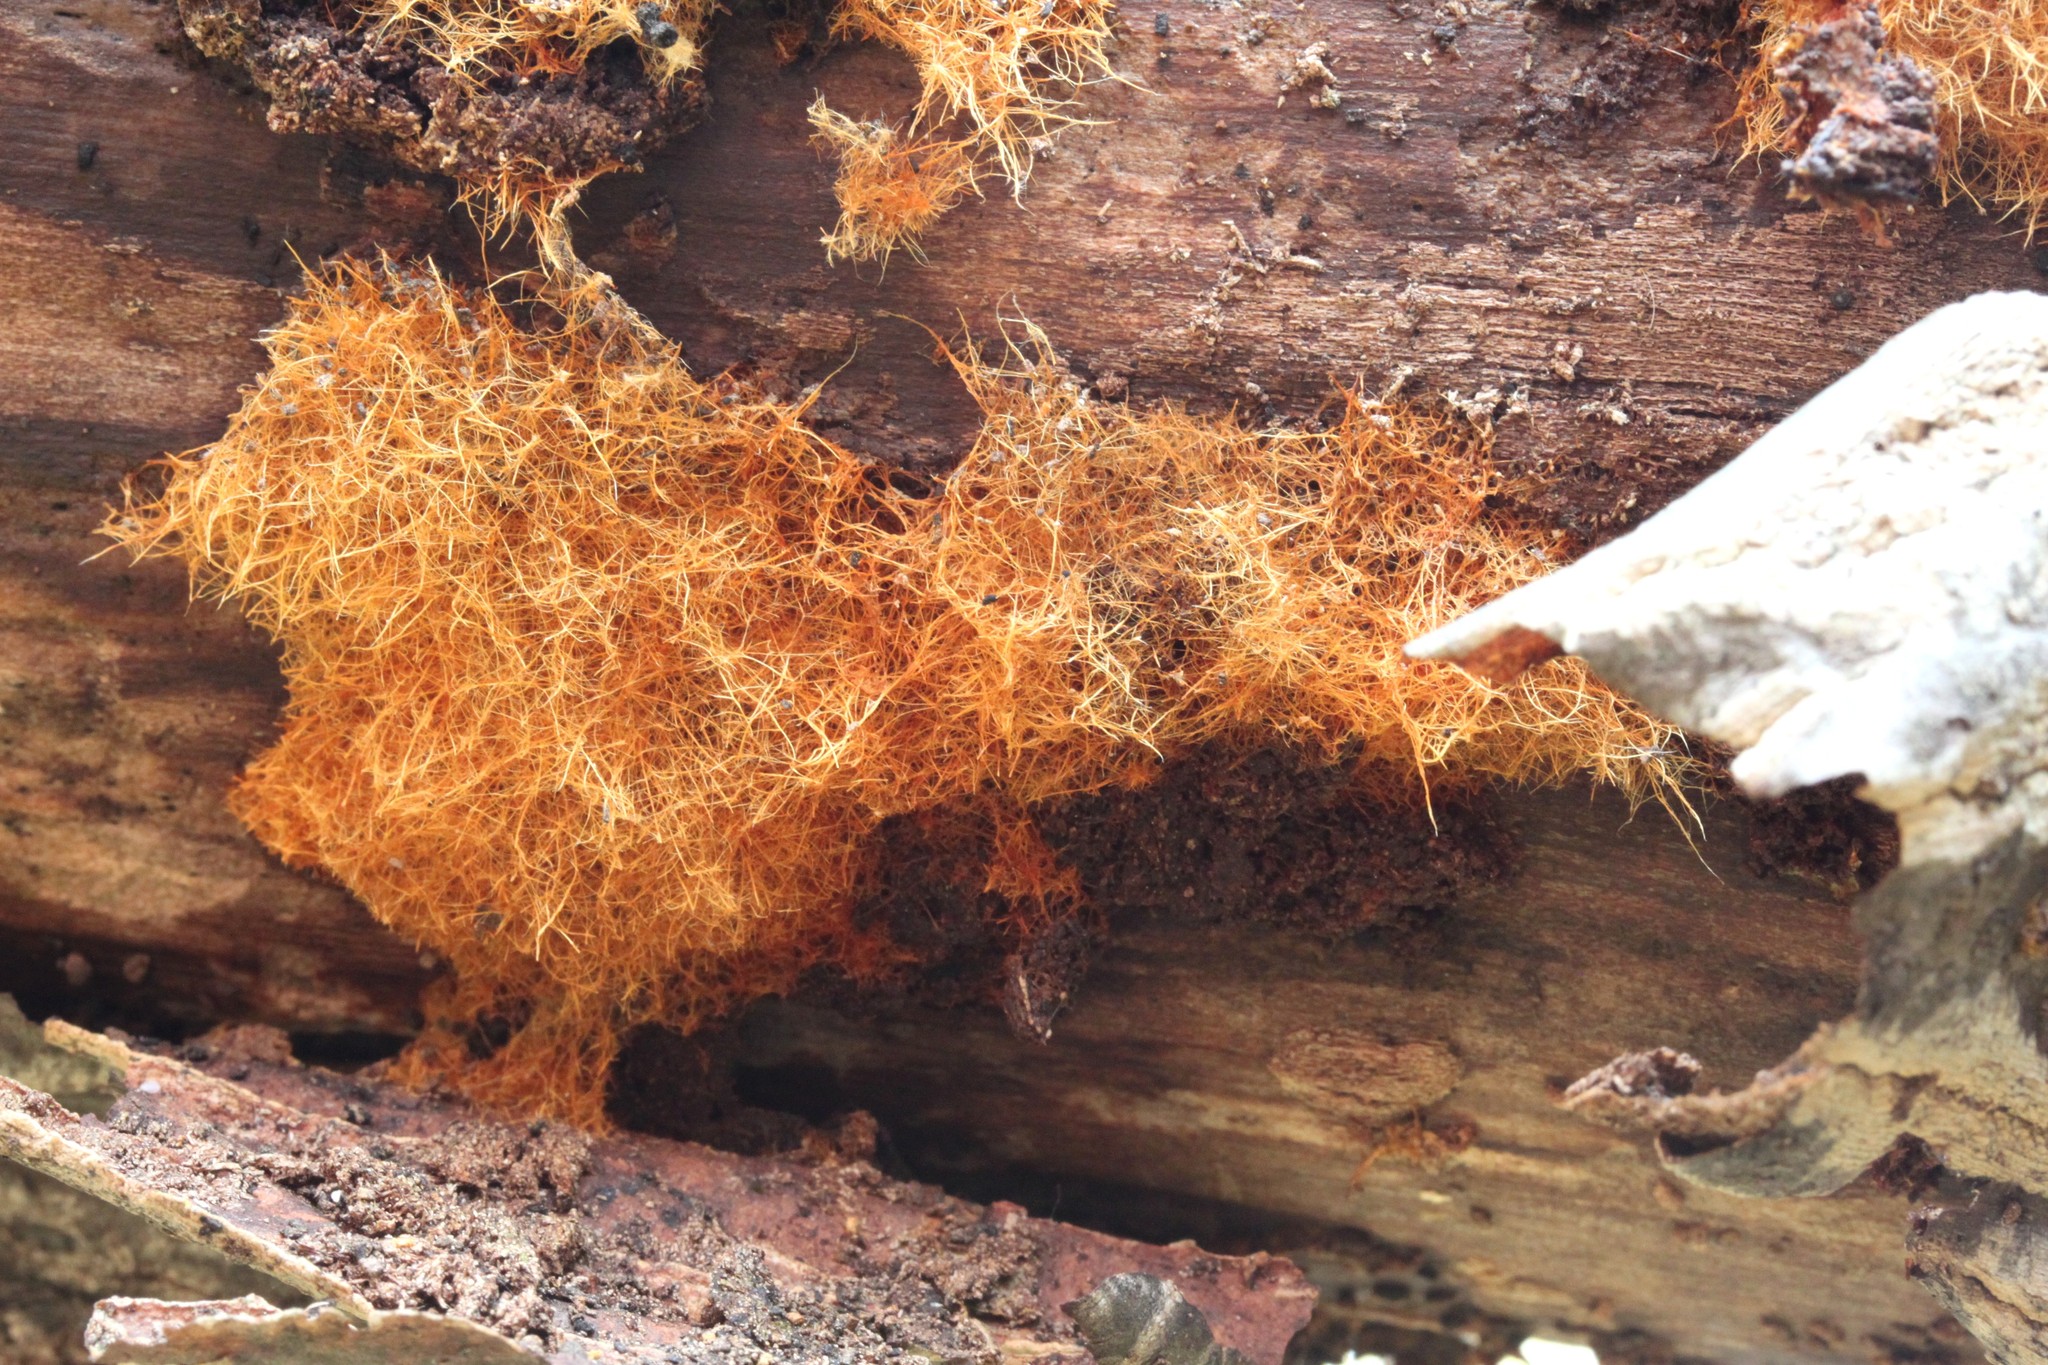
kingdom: Fungi
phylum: Basidiomycota
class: Agaricomycetes
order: Agaricales
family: Psathyrellaceae
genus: Coprinellus
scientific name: Coprinellus radians
